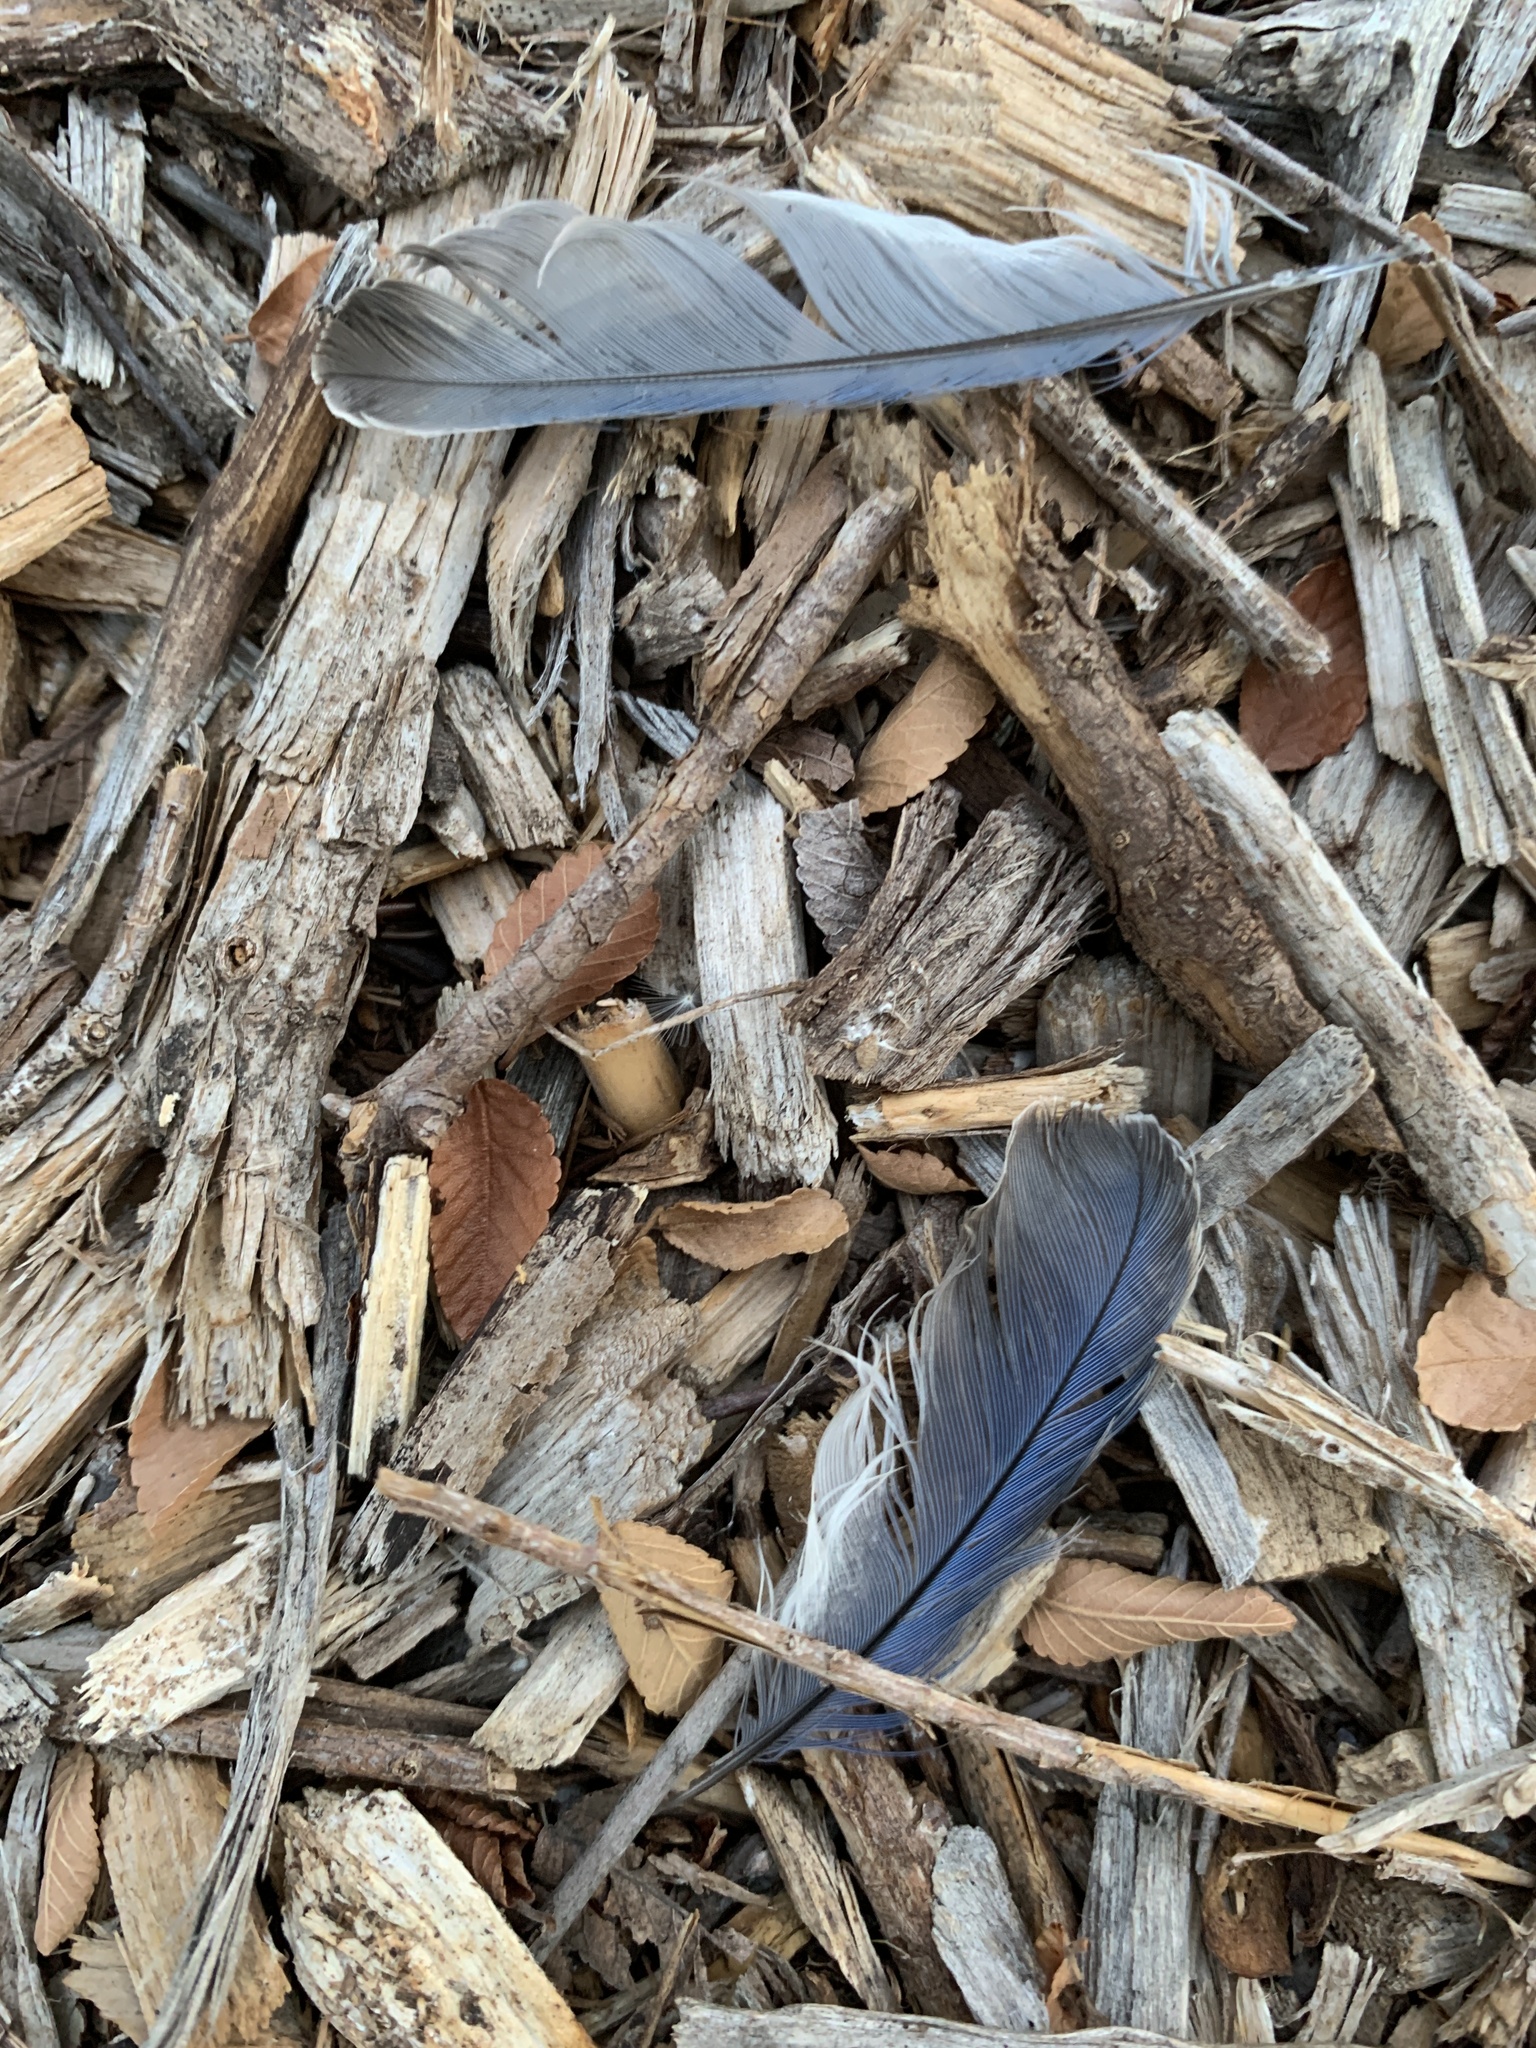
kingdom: Animalia
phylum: Chordata
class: Aves
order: Passeriformes
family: Turdidae
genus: Sialia
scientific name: Sialia sialis
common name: Eastern bluebird
